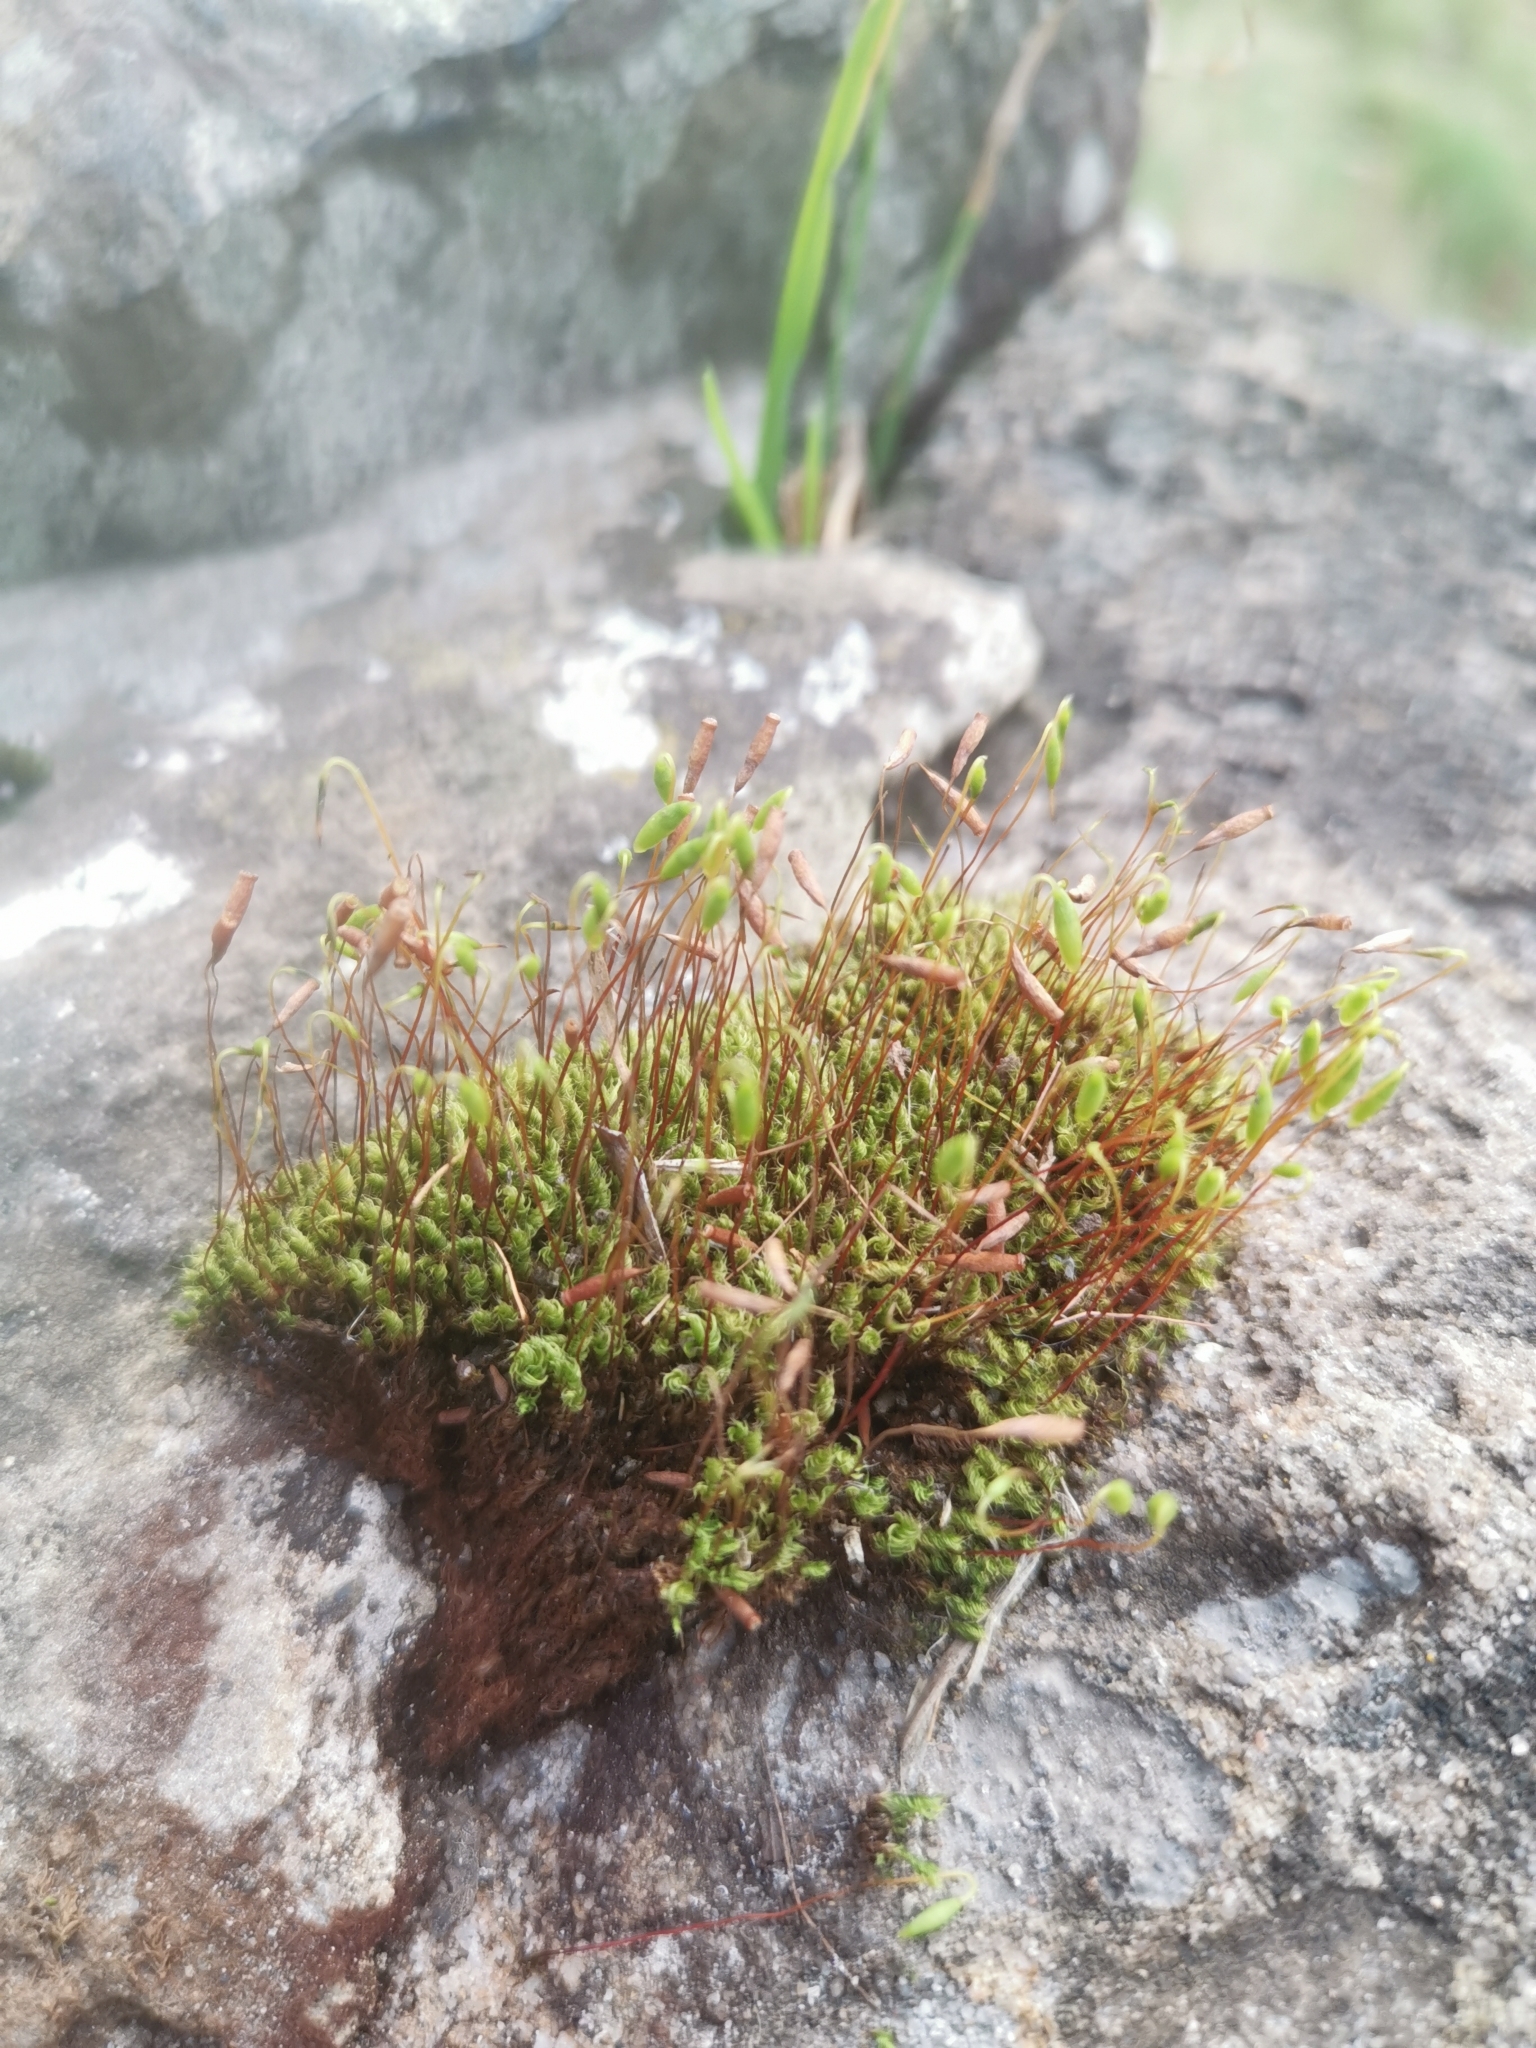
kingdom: Plantae
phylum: Bryophyta
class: Bryopsida
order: Bryales
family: Bryaceae
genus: Rosulabryum
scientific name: Rosulabryum capillare
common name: Capillary thread-moss
